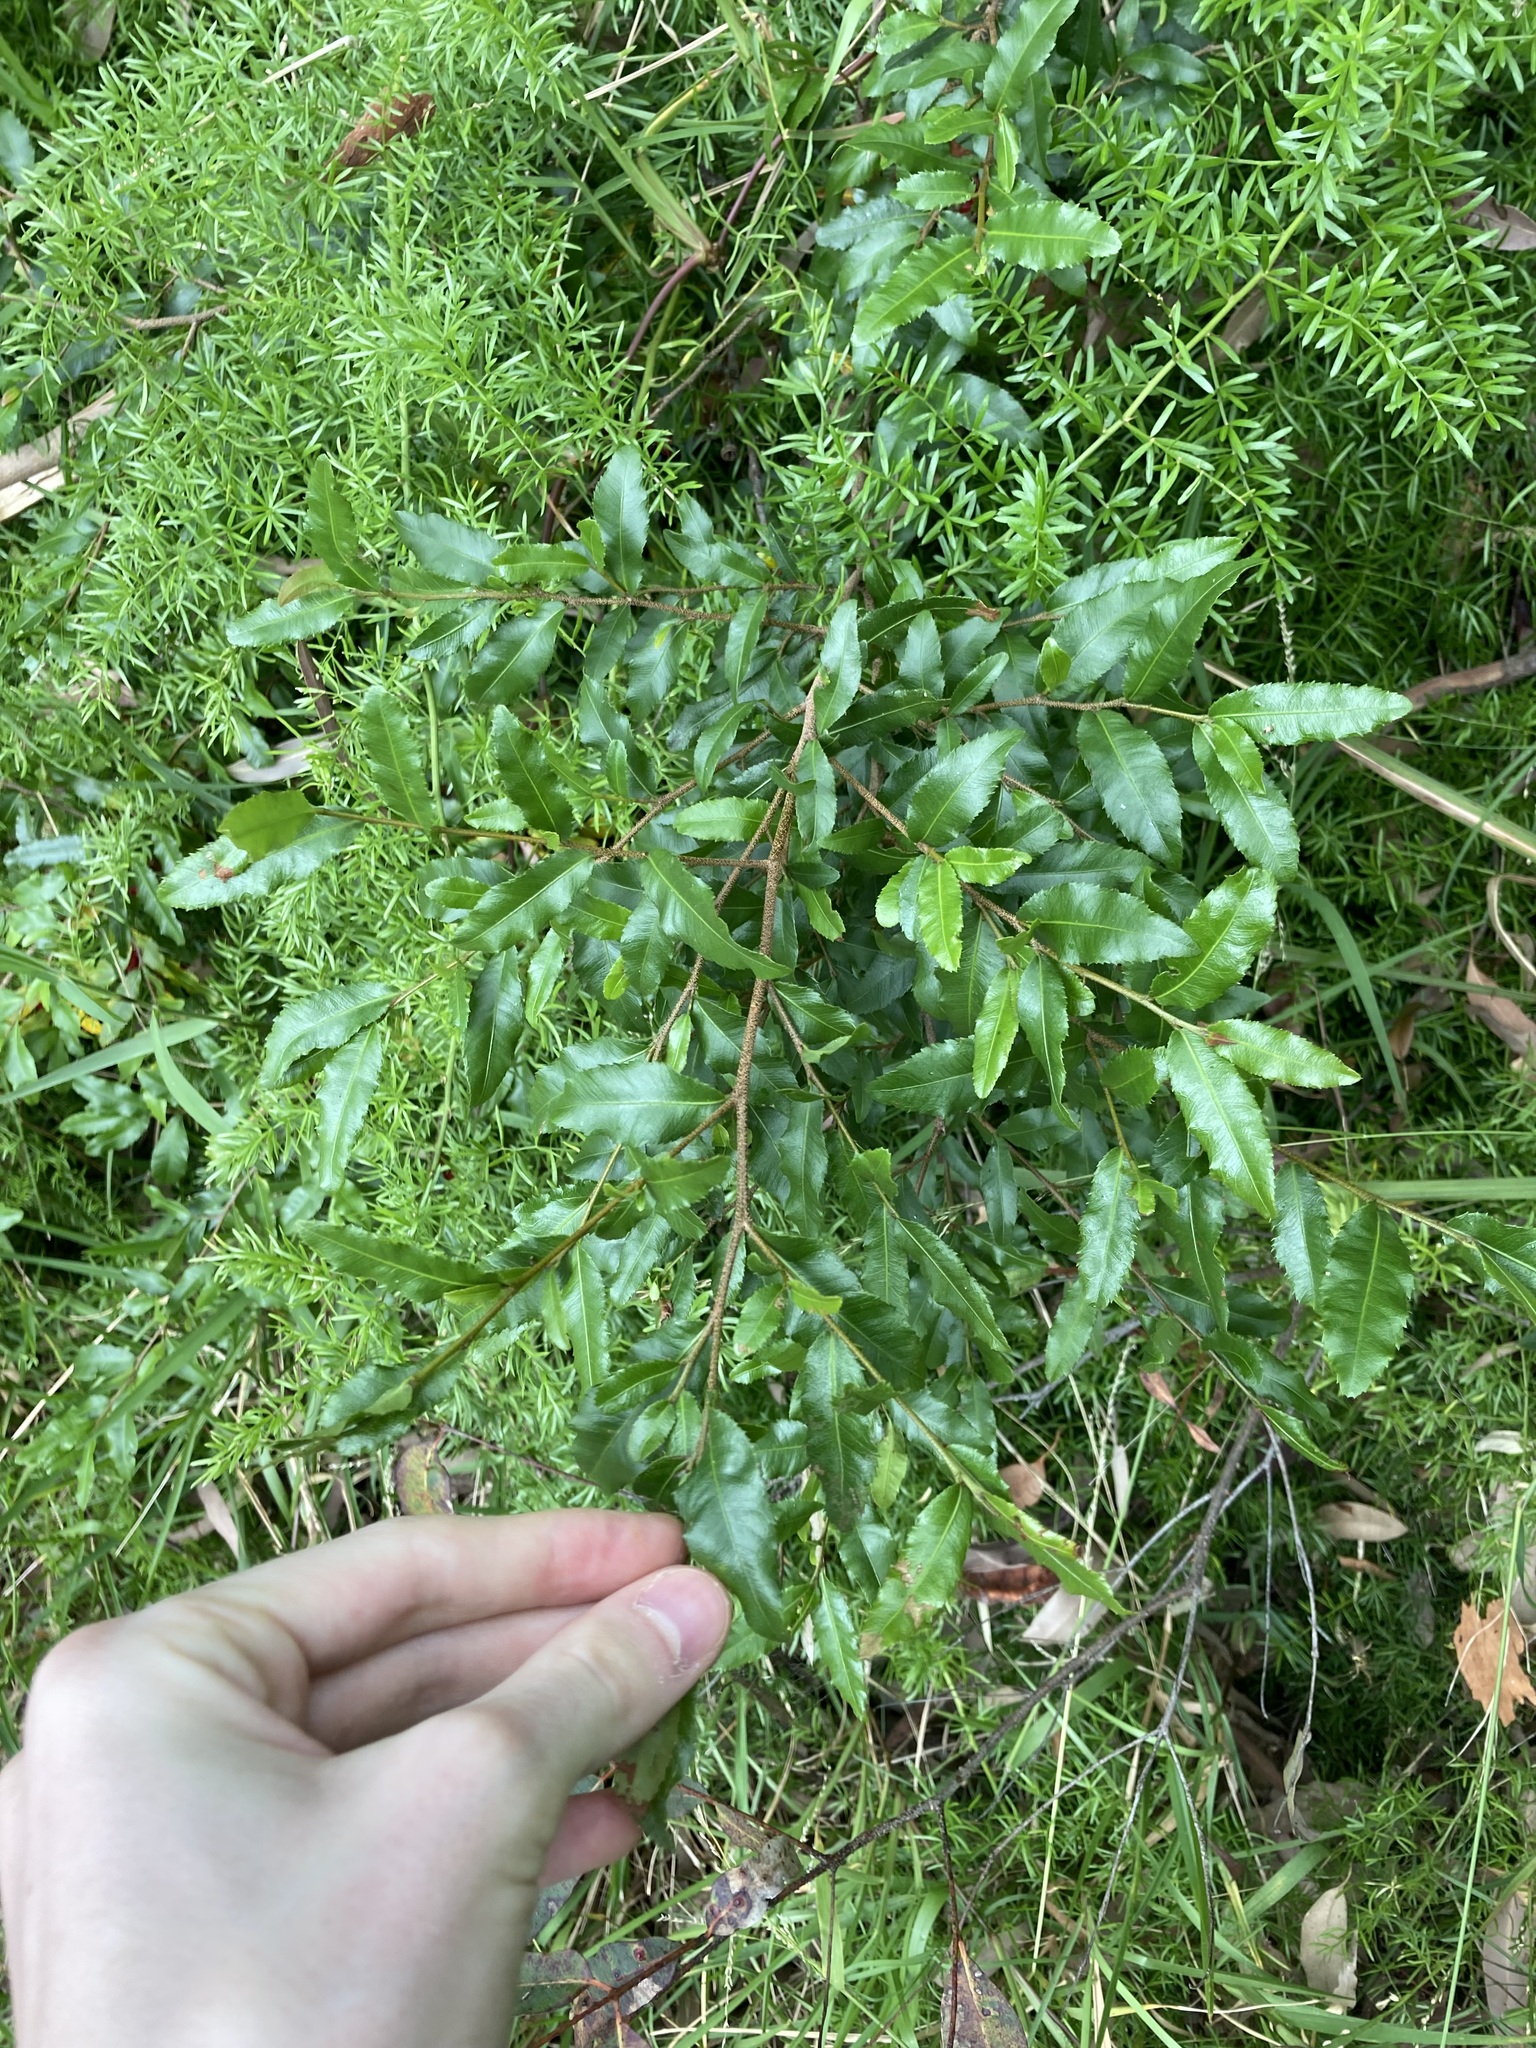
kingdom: Plantae
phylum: Tracheophyta
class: Magnoliopsida
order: Malpighiales
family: Ochnaceae
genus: Ochna
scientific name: Ochna serrulata
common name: Mickey mouse plant
